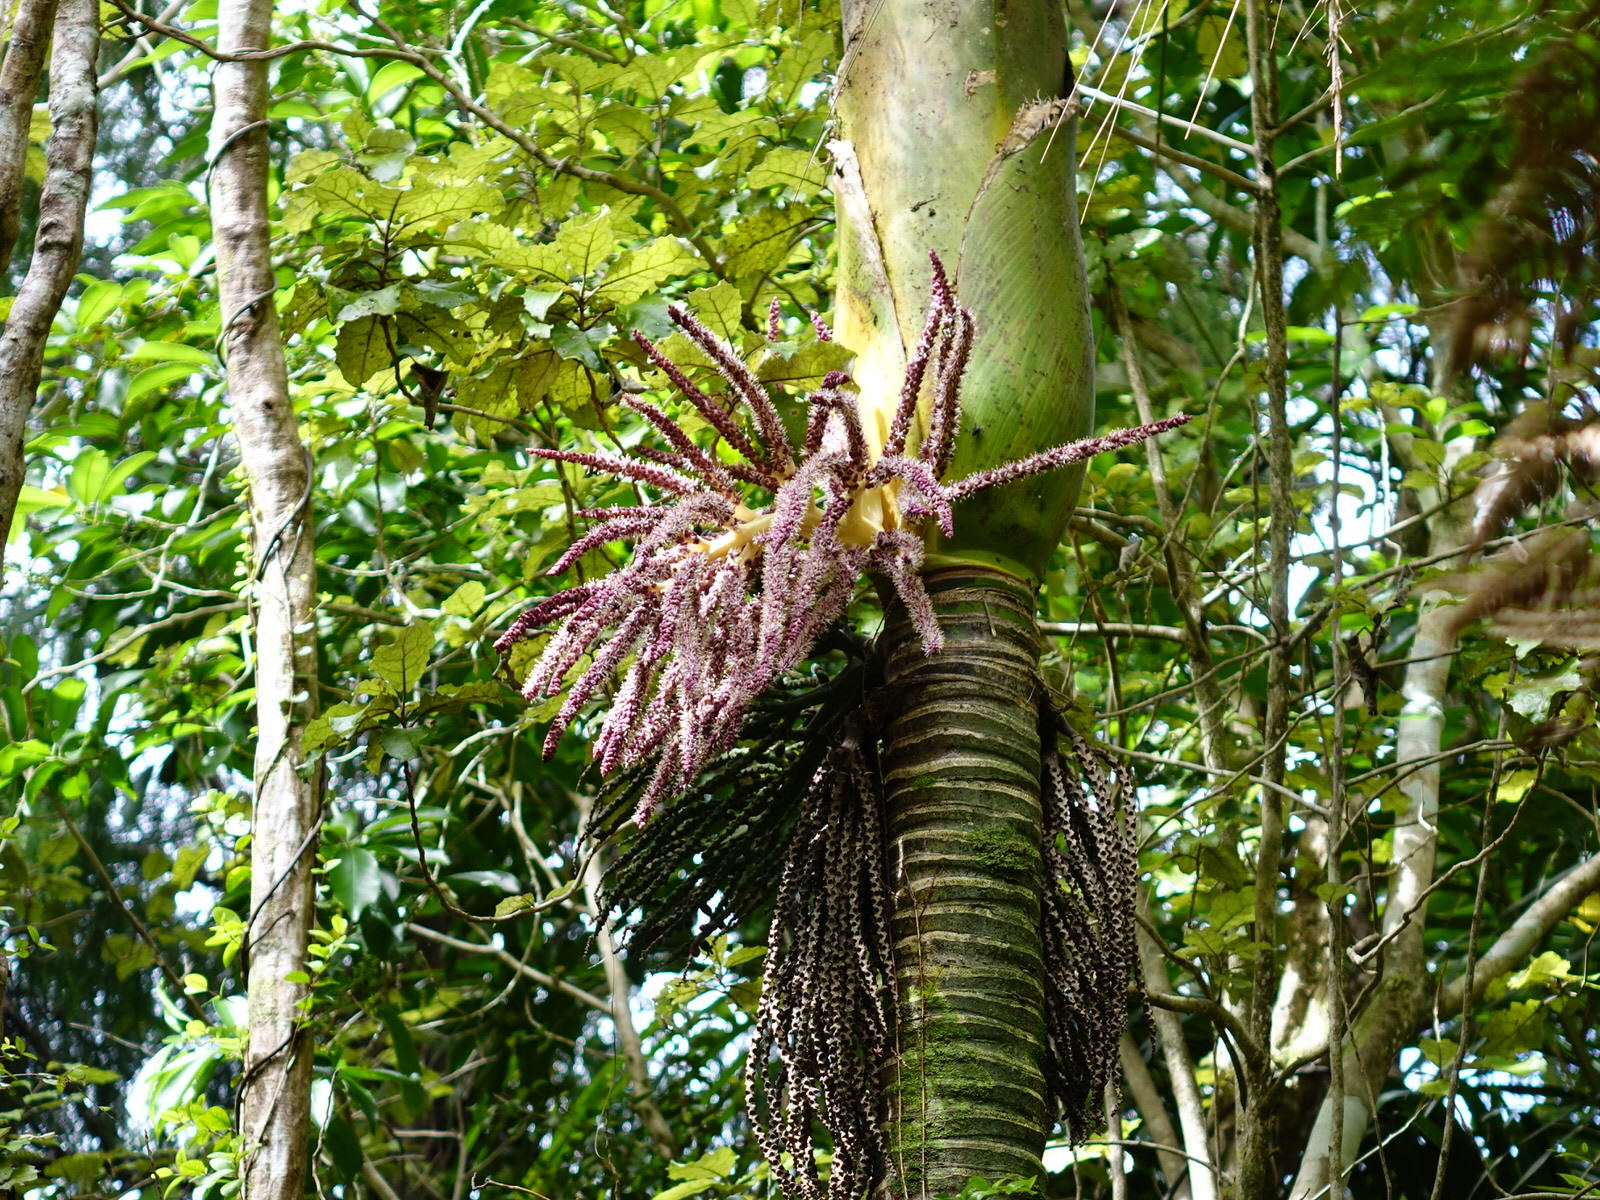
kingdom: Plantae
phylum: Tracheophyta
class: Liliopsida
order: Arecales
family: Arecaceae
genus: Rhopalostylis
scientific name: Rhopalostylis sapida
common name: Feather-duster palm
